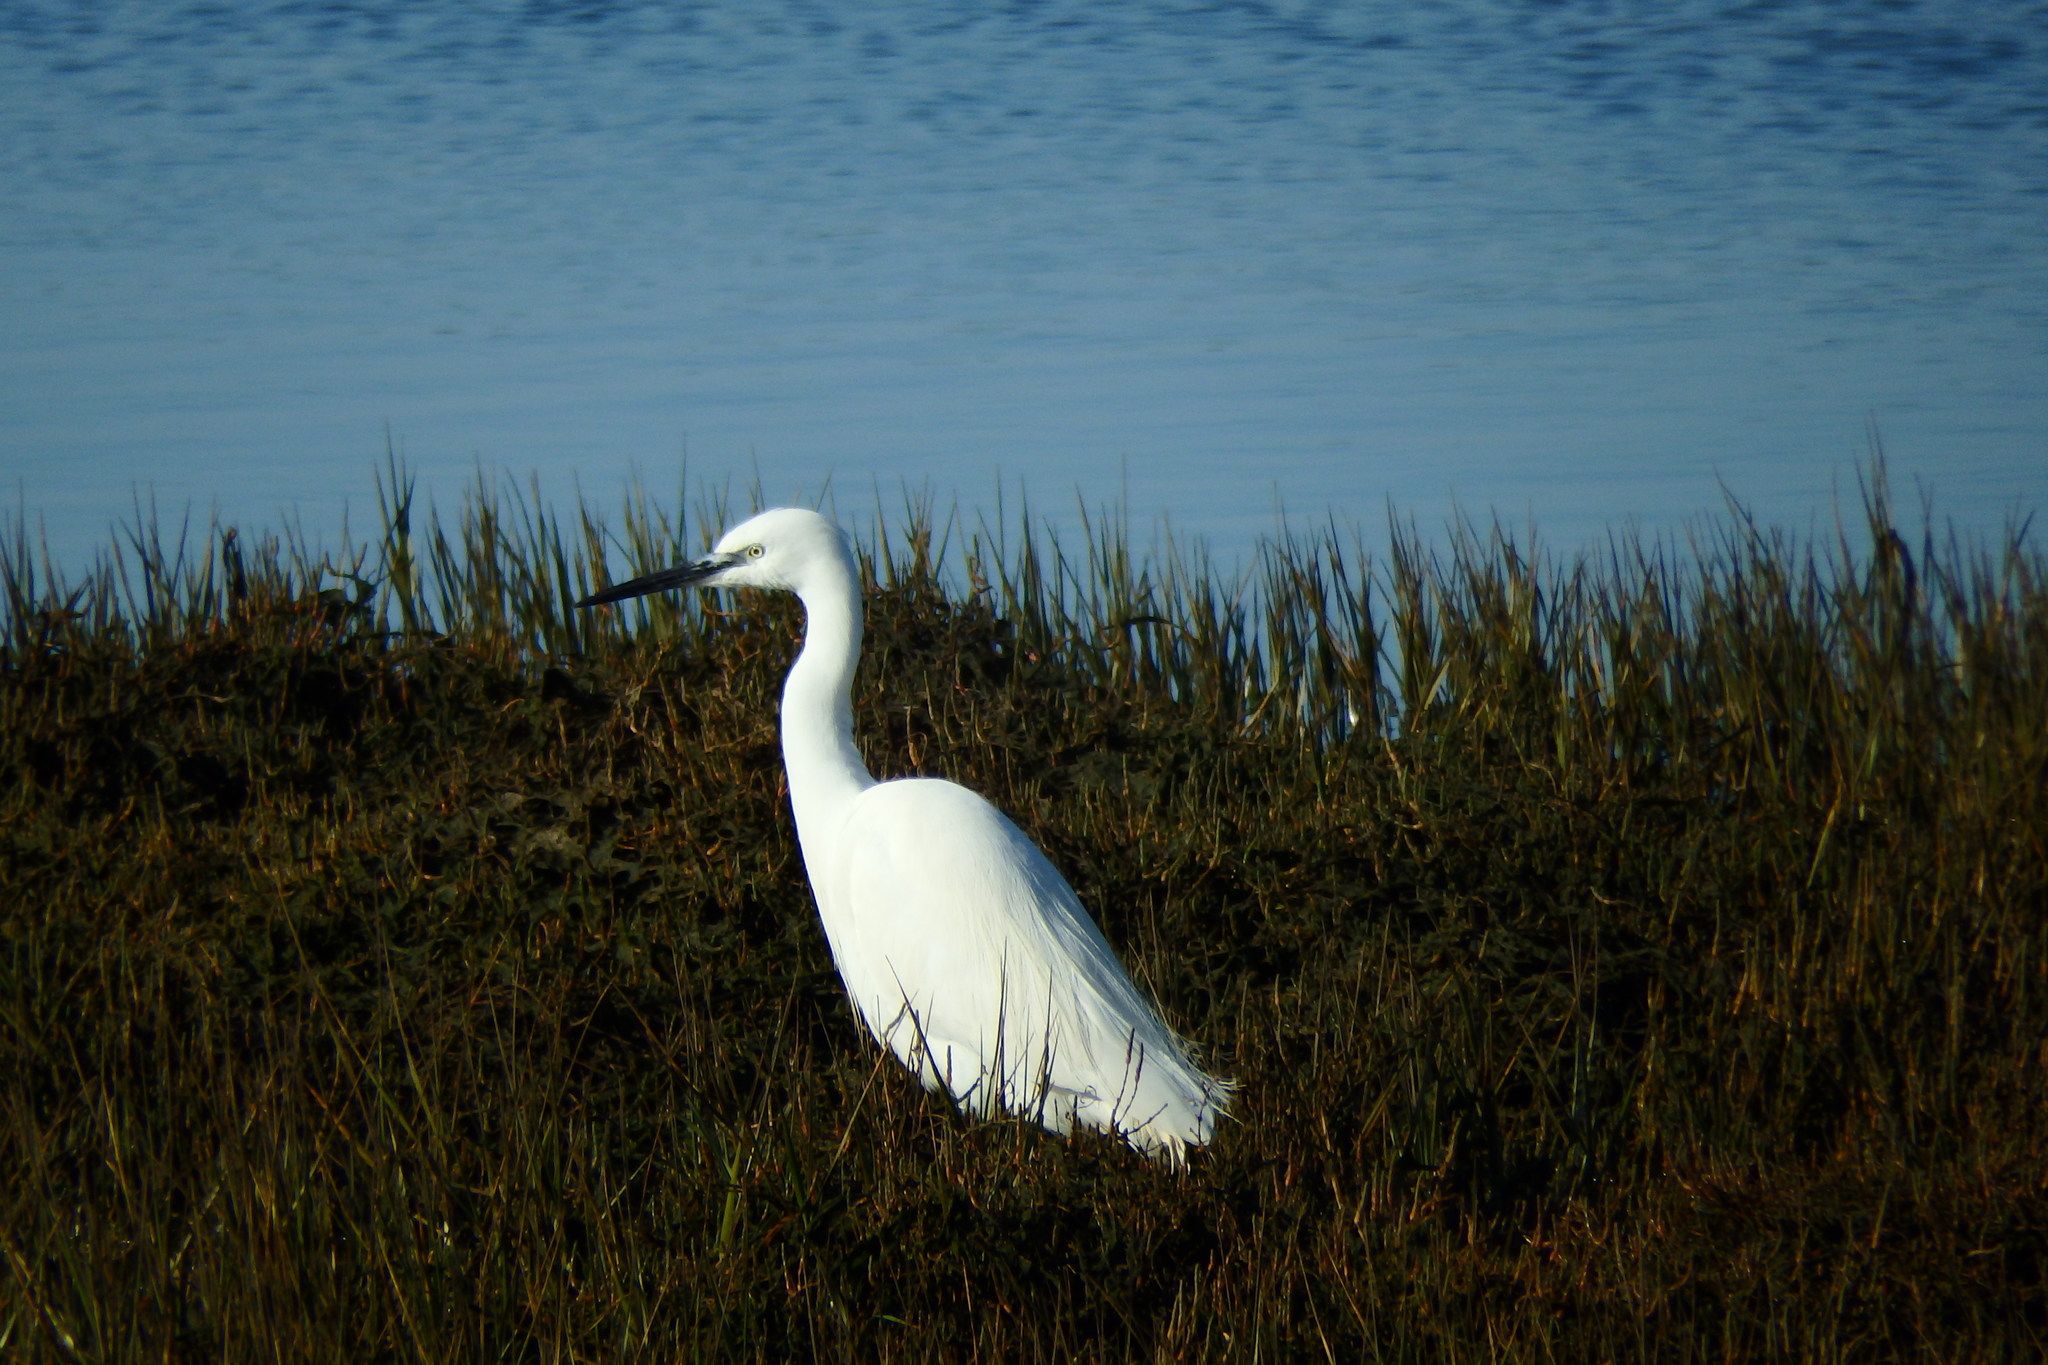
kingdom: Animalia
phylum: Chordata
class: Aves
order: Pelecaniformes
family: Ardeidae
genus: Egretta
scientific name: Egretta garzetta
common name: Little egret
